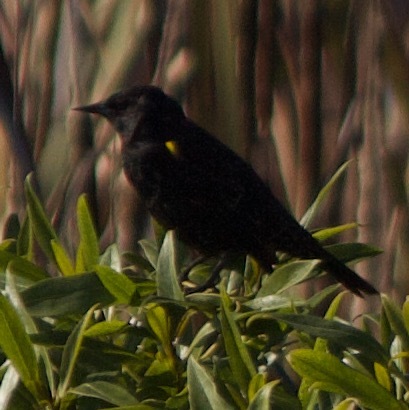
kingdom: Animalia
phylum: Chordata
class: Aves
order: Passeriformes
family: Icteridae
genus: Agelasticus
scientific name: Agelasticus thilius
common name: Yellow-winged blackbird
